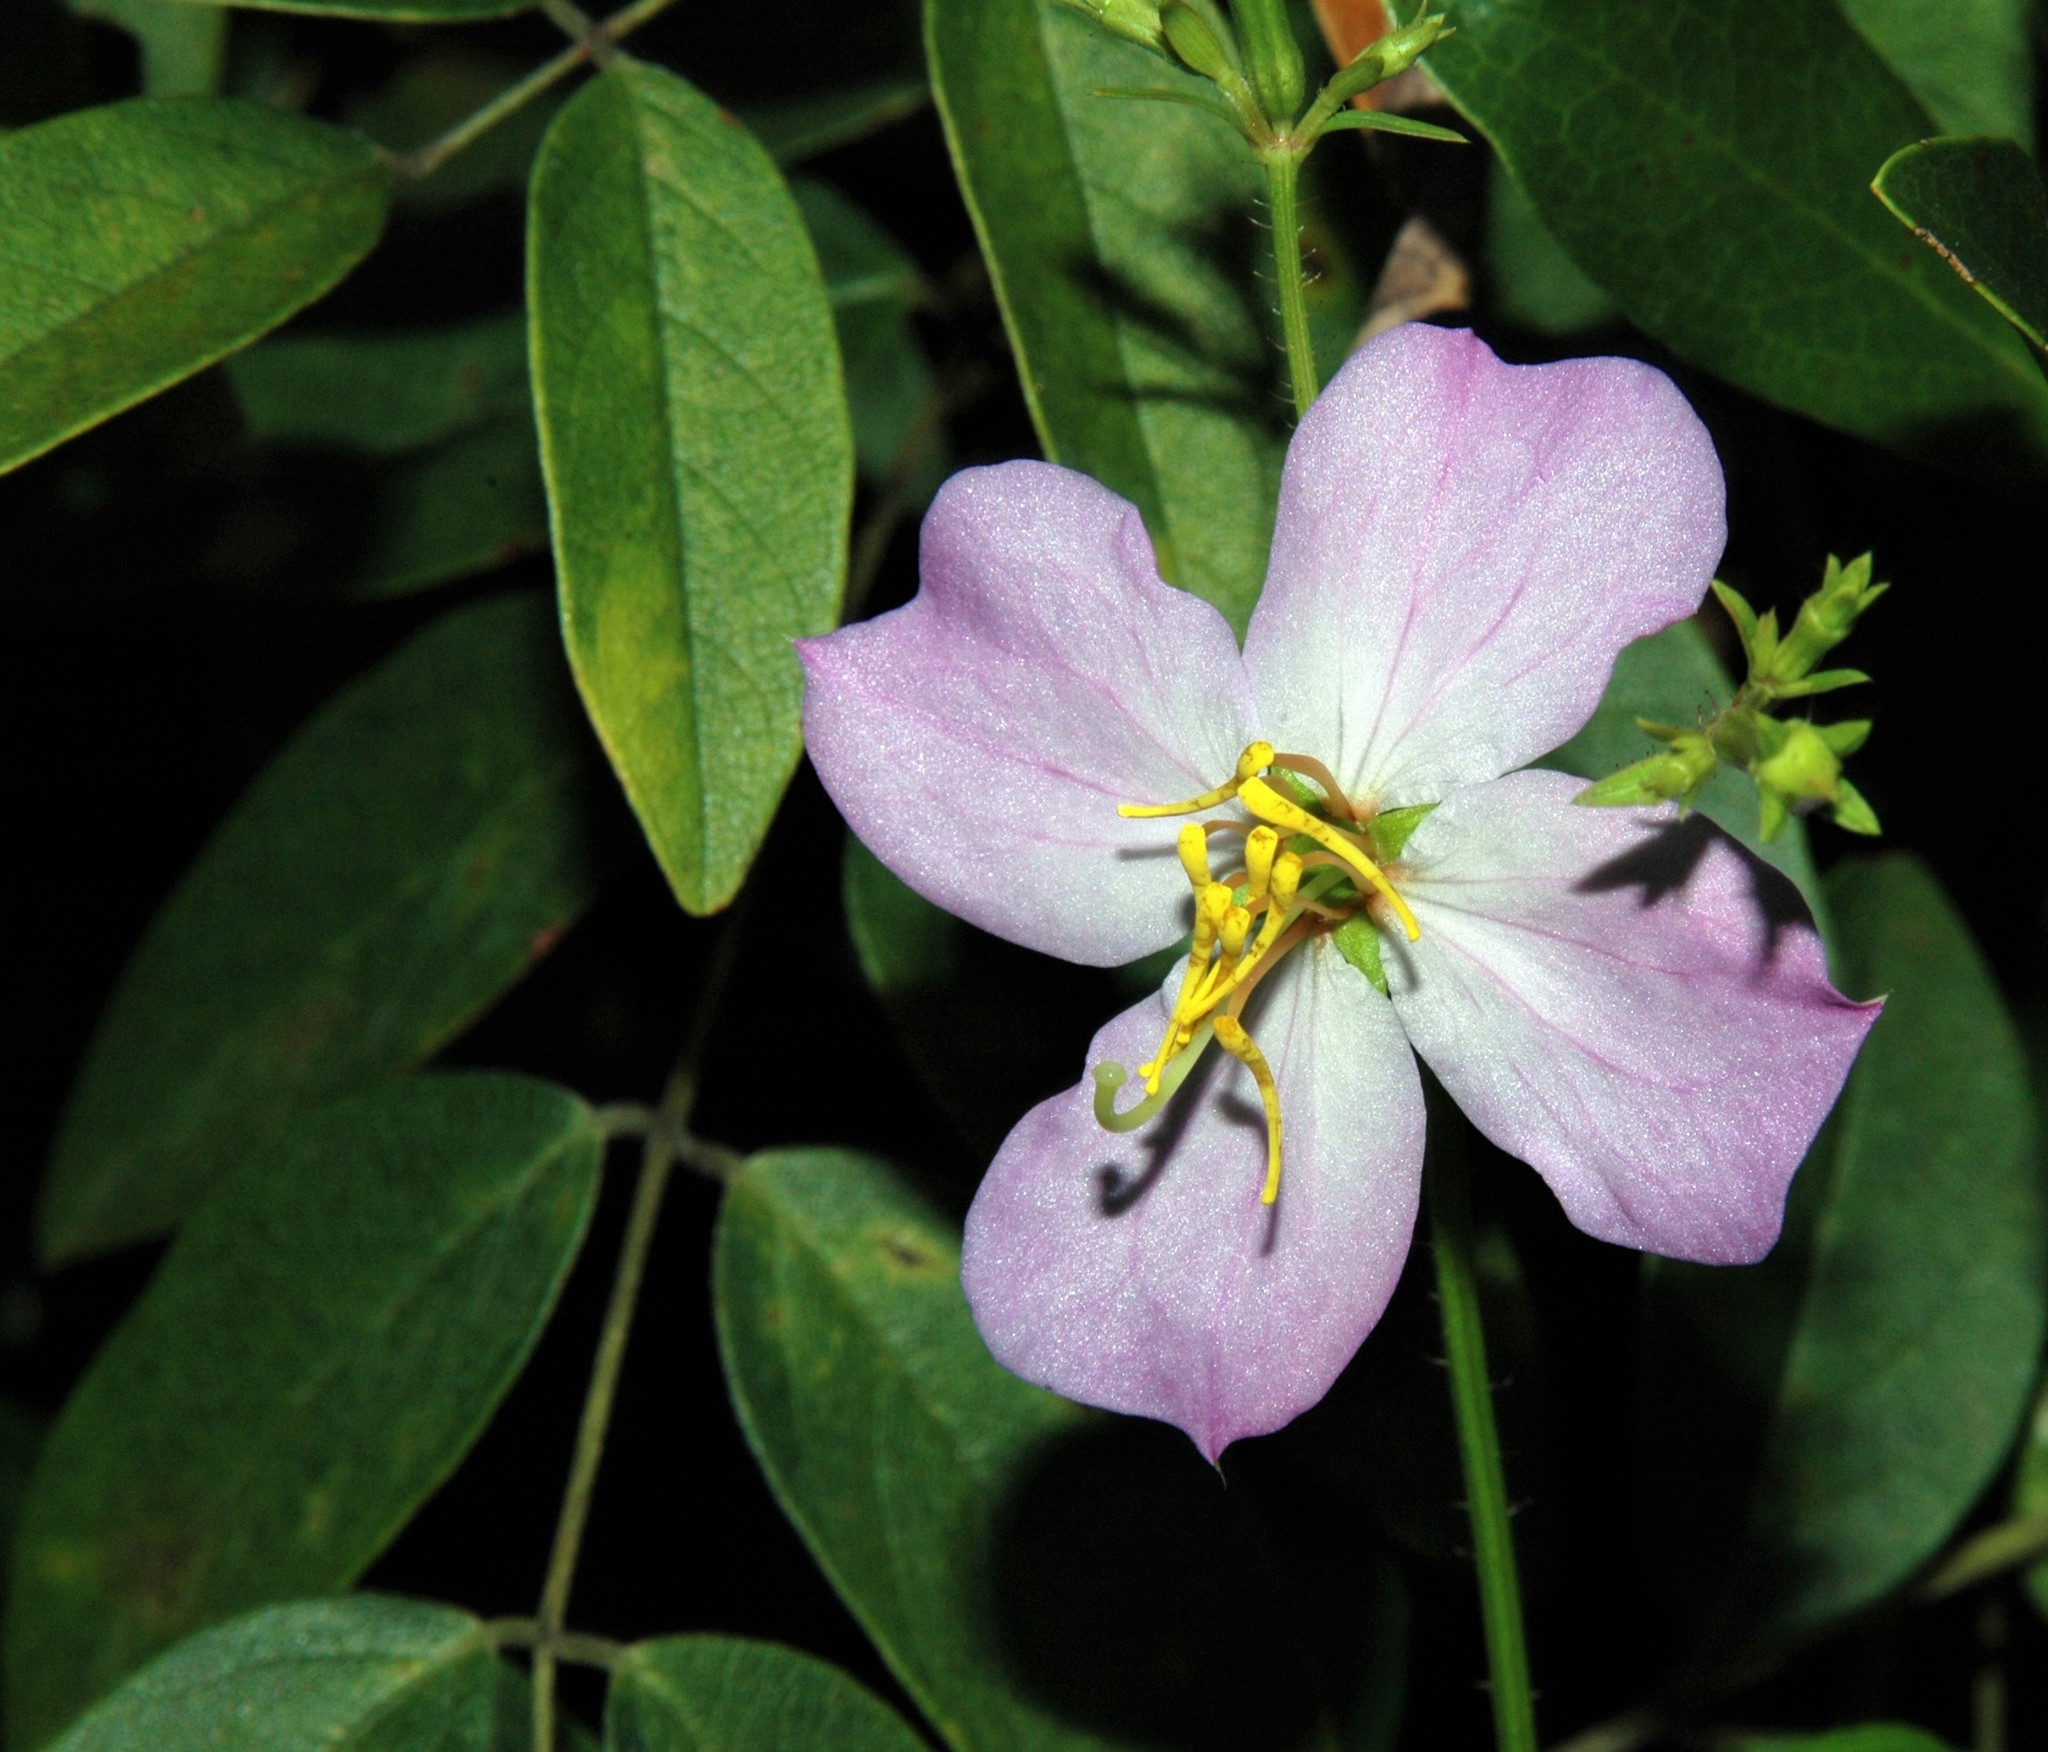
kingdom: Plantae
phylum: Tracheophyta
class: Magnoliopsida
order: Myrtales
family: Melastomataceae
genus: Rhexia
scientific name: Rhexia mariana
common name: Dull meadow-pitcher
